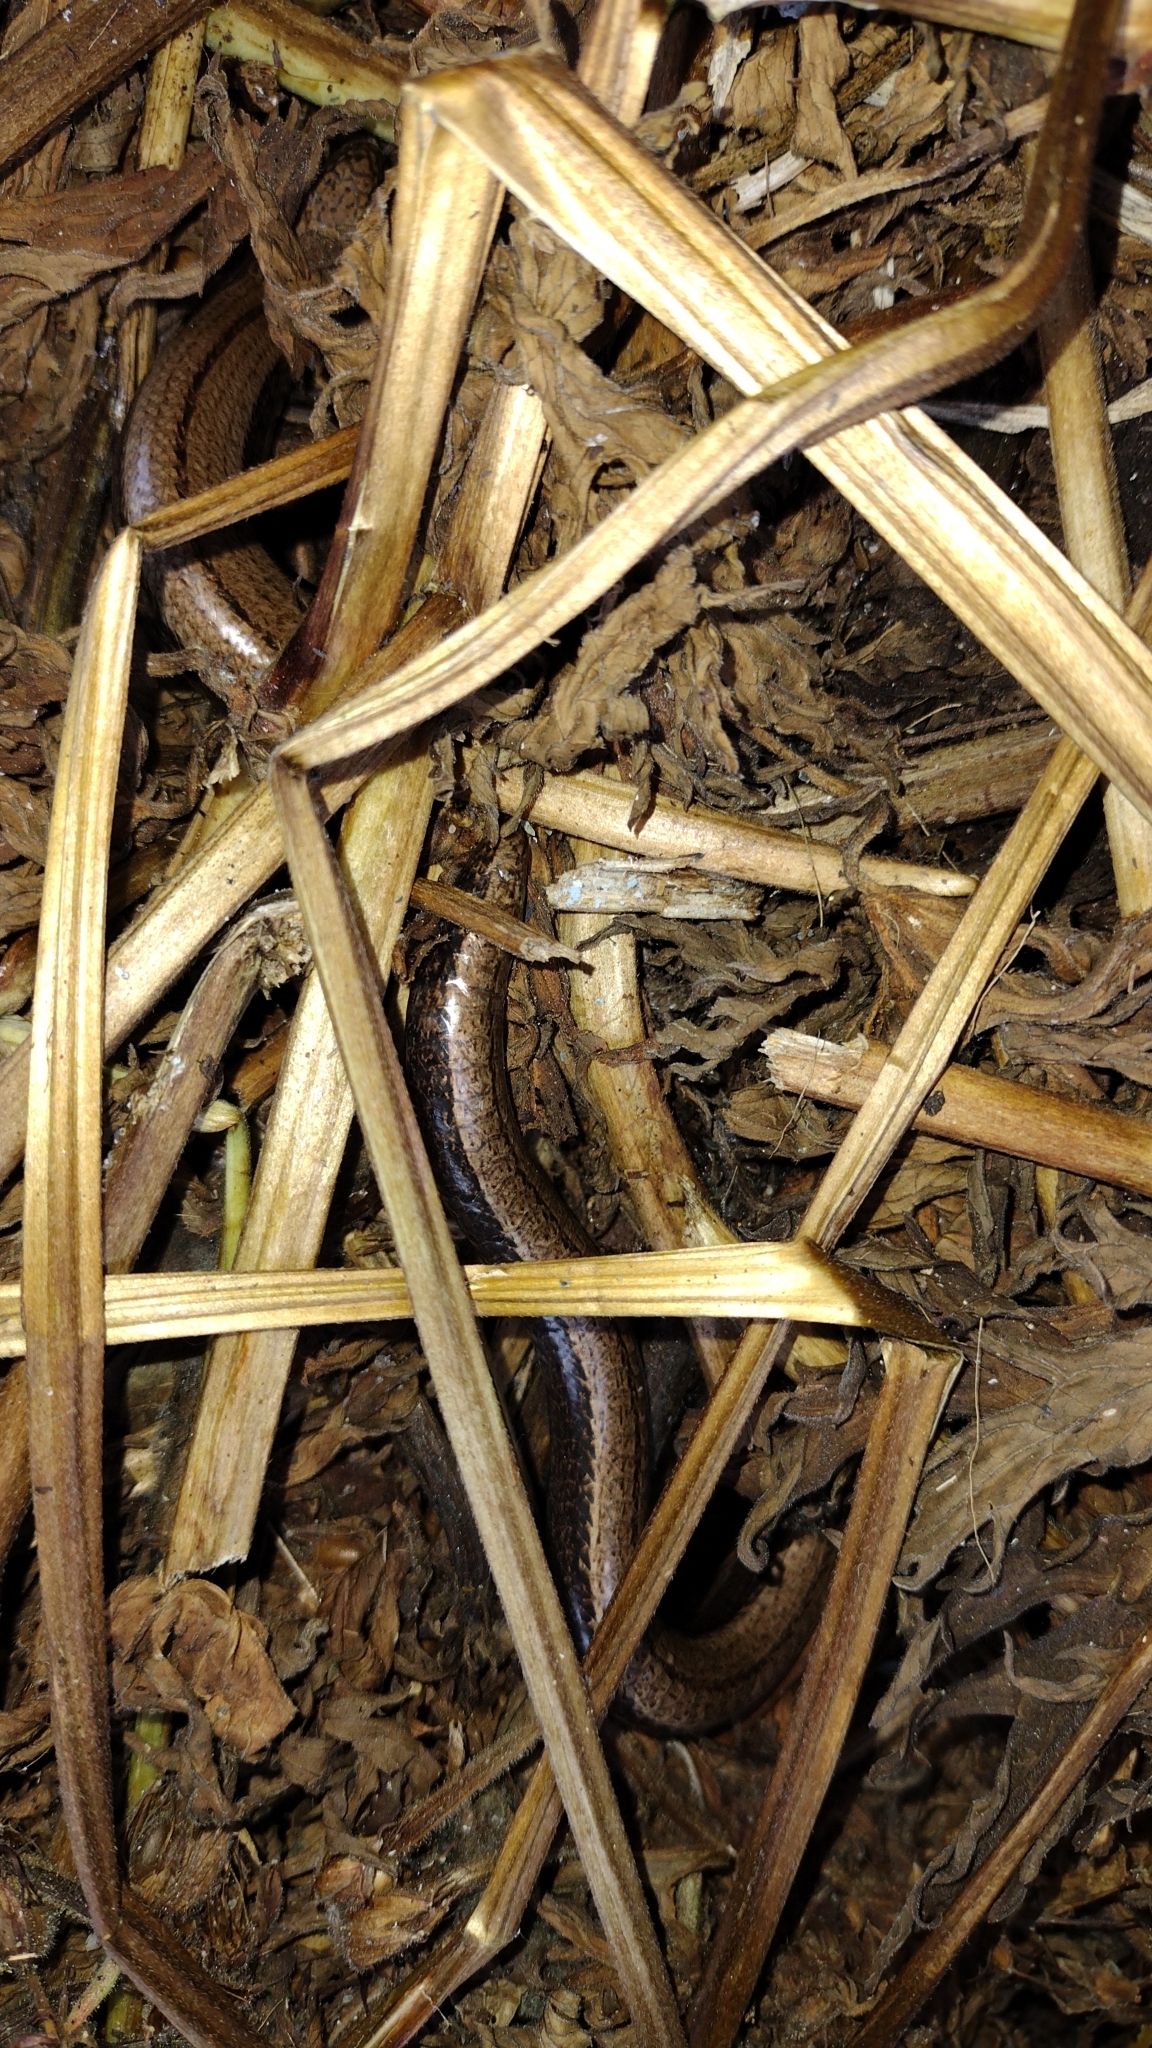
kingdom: Animalia
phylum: Chordata
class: Squamata
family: Anguidae
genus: Anguis
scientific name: Anguis fragilis
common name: Slow worm
